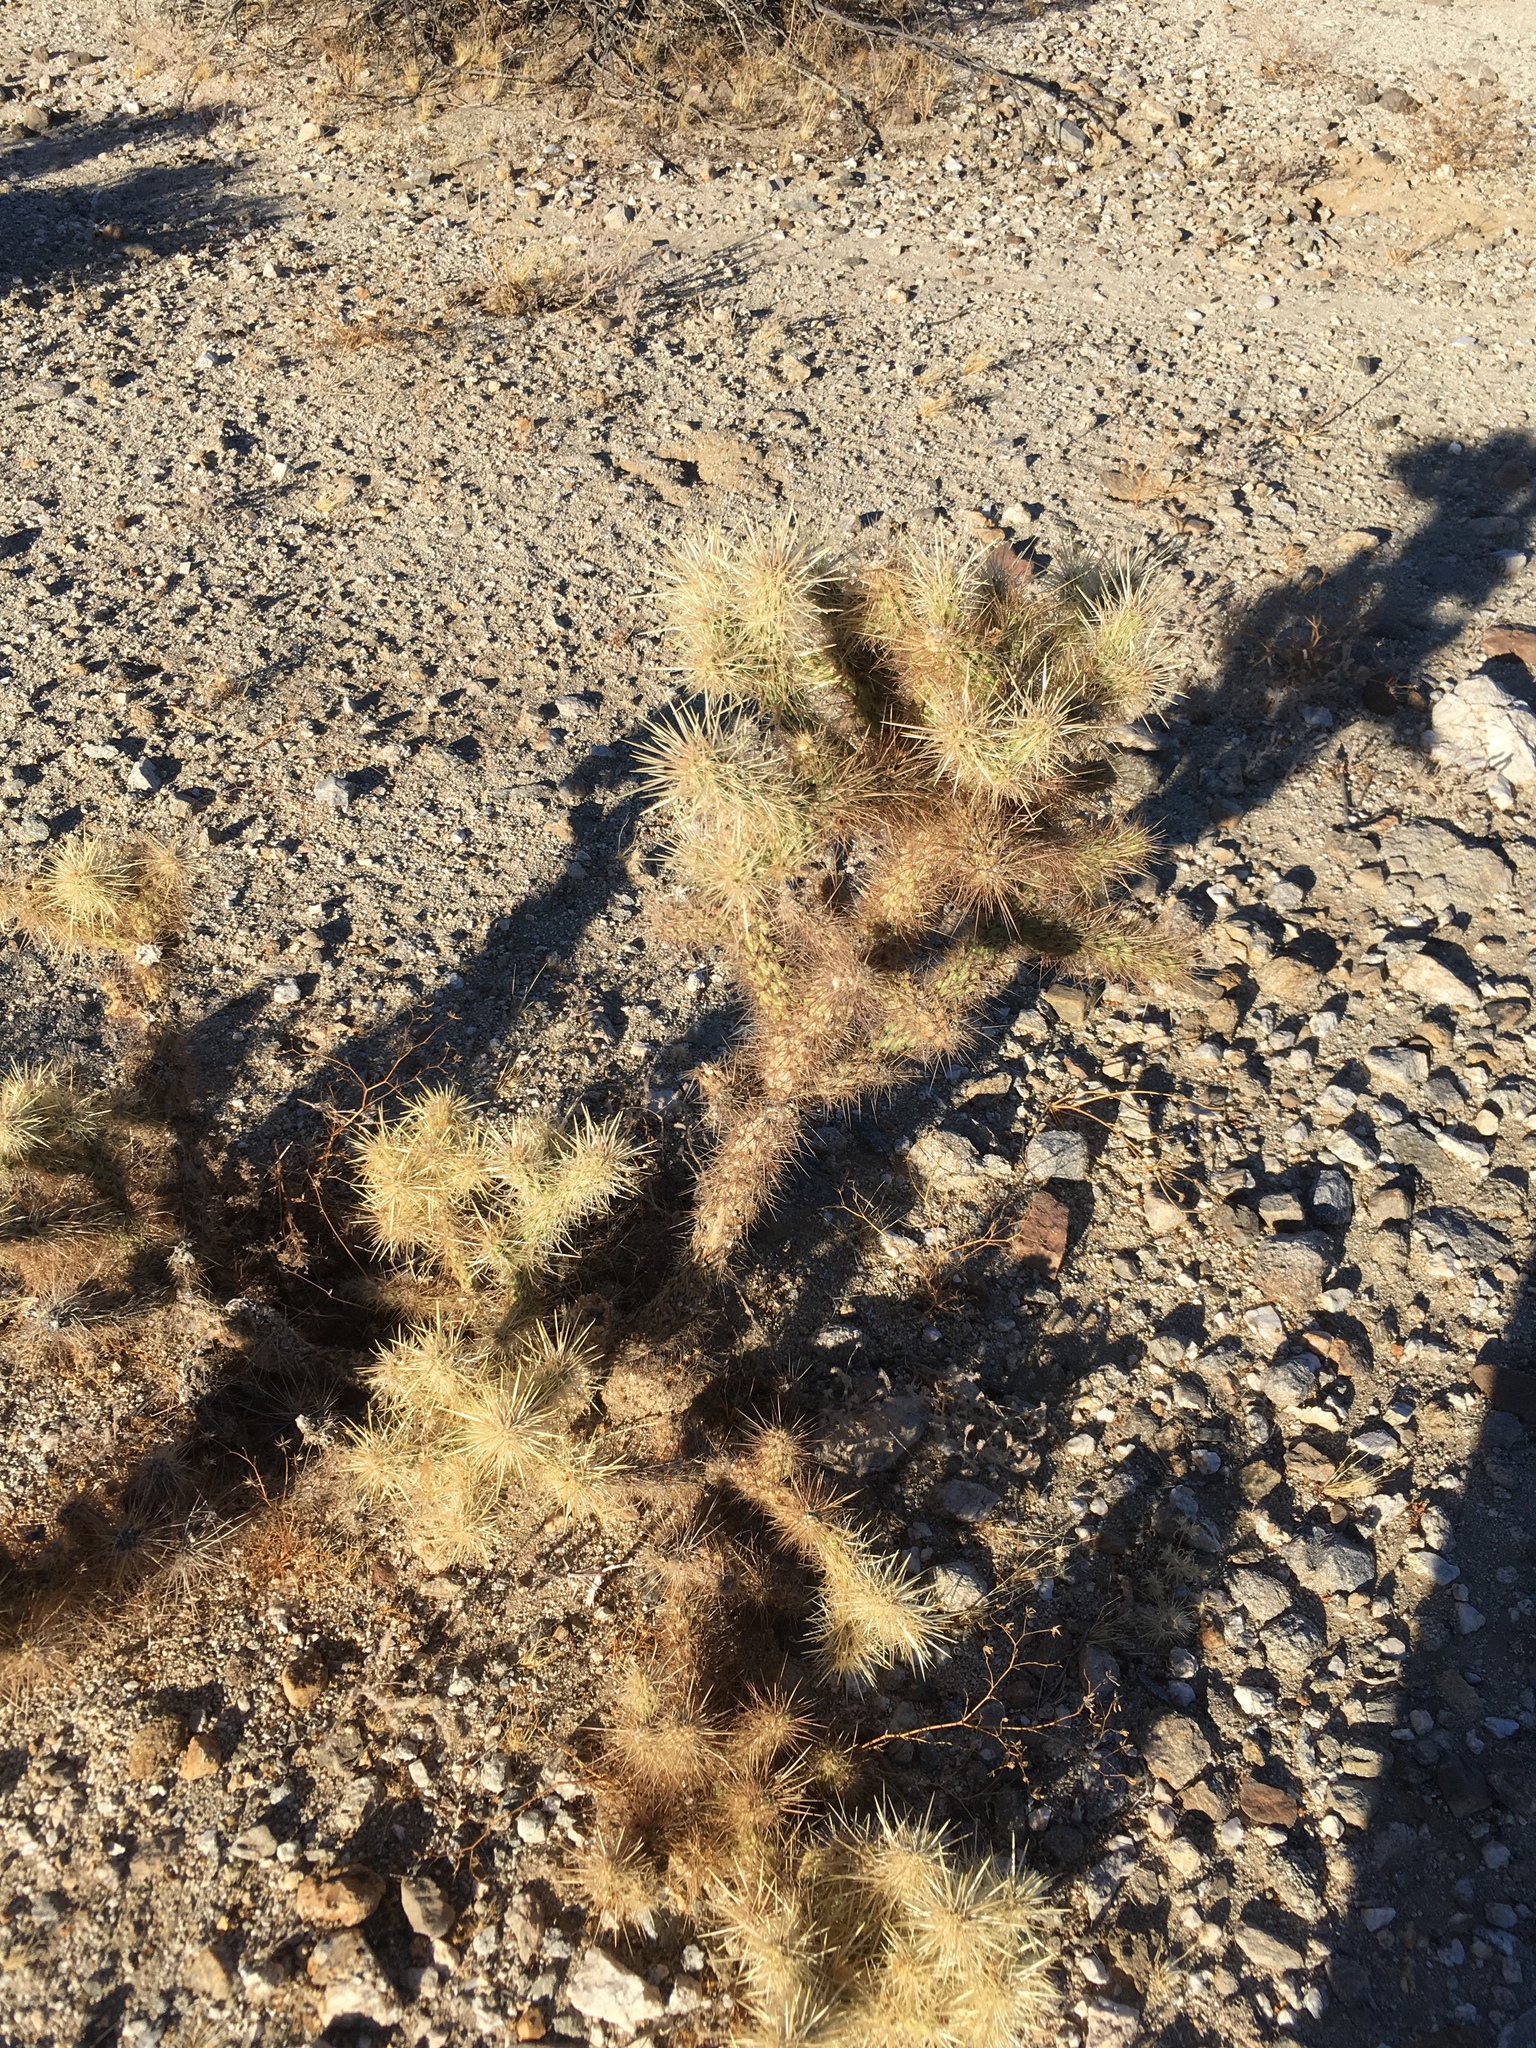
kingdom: Plantae
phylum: Tracheophyta
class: Magnoliopsida
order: Caryophyllales
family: Cactaceae
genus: Cylindropuntia
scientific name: Cylindropuntia echinocarpa
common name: Ground cholla
